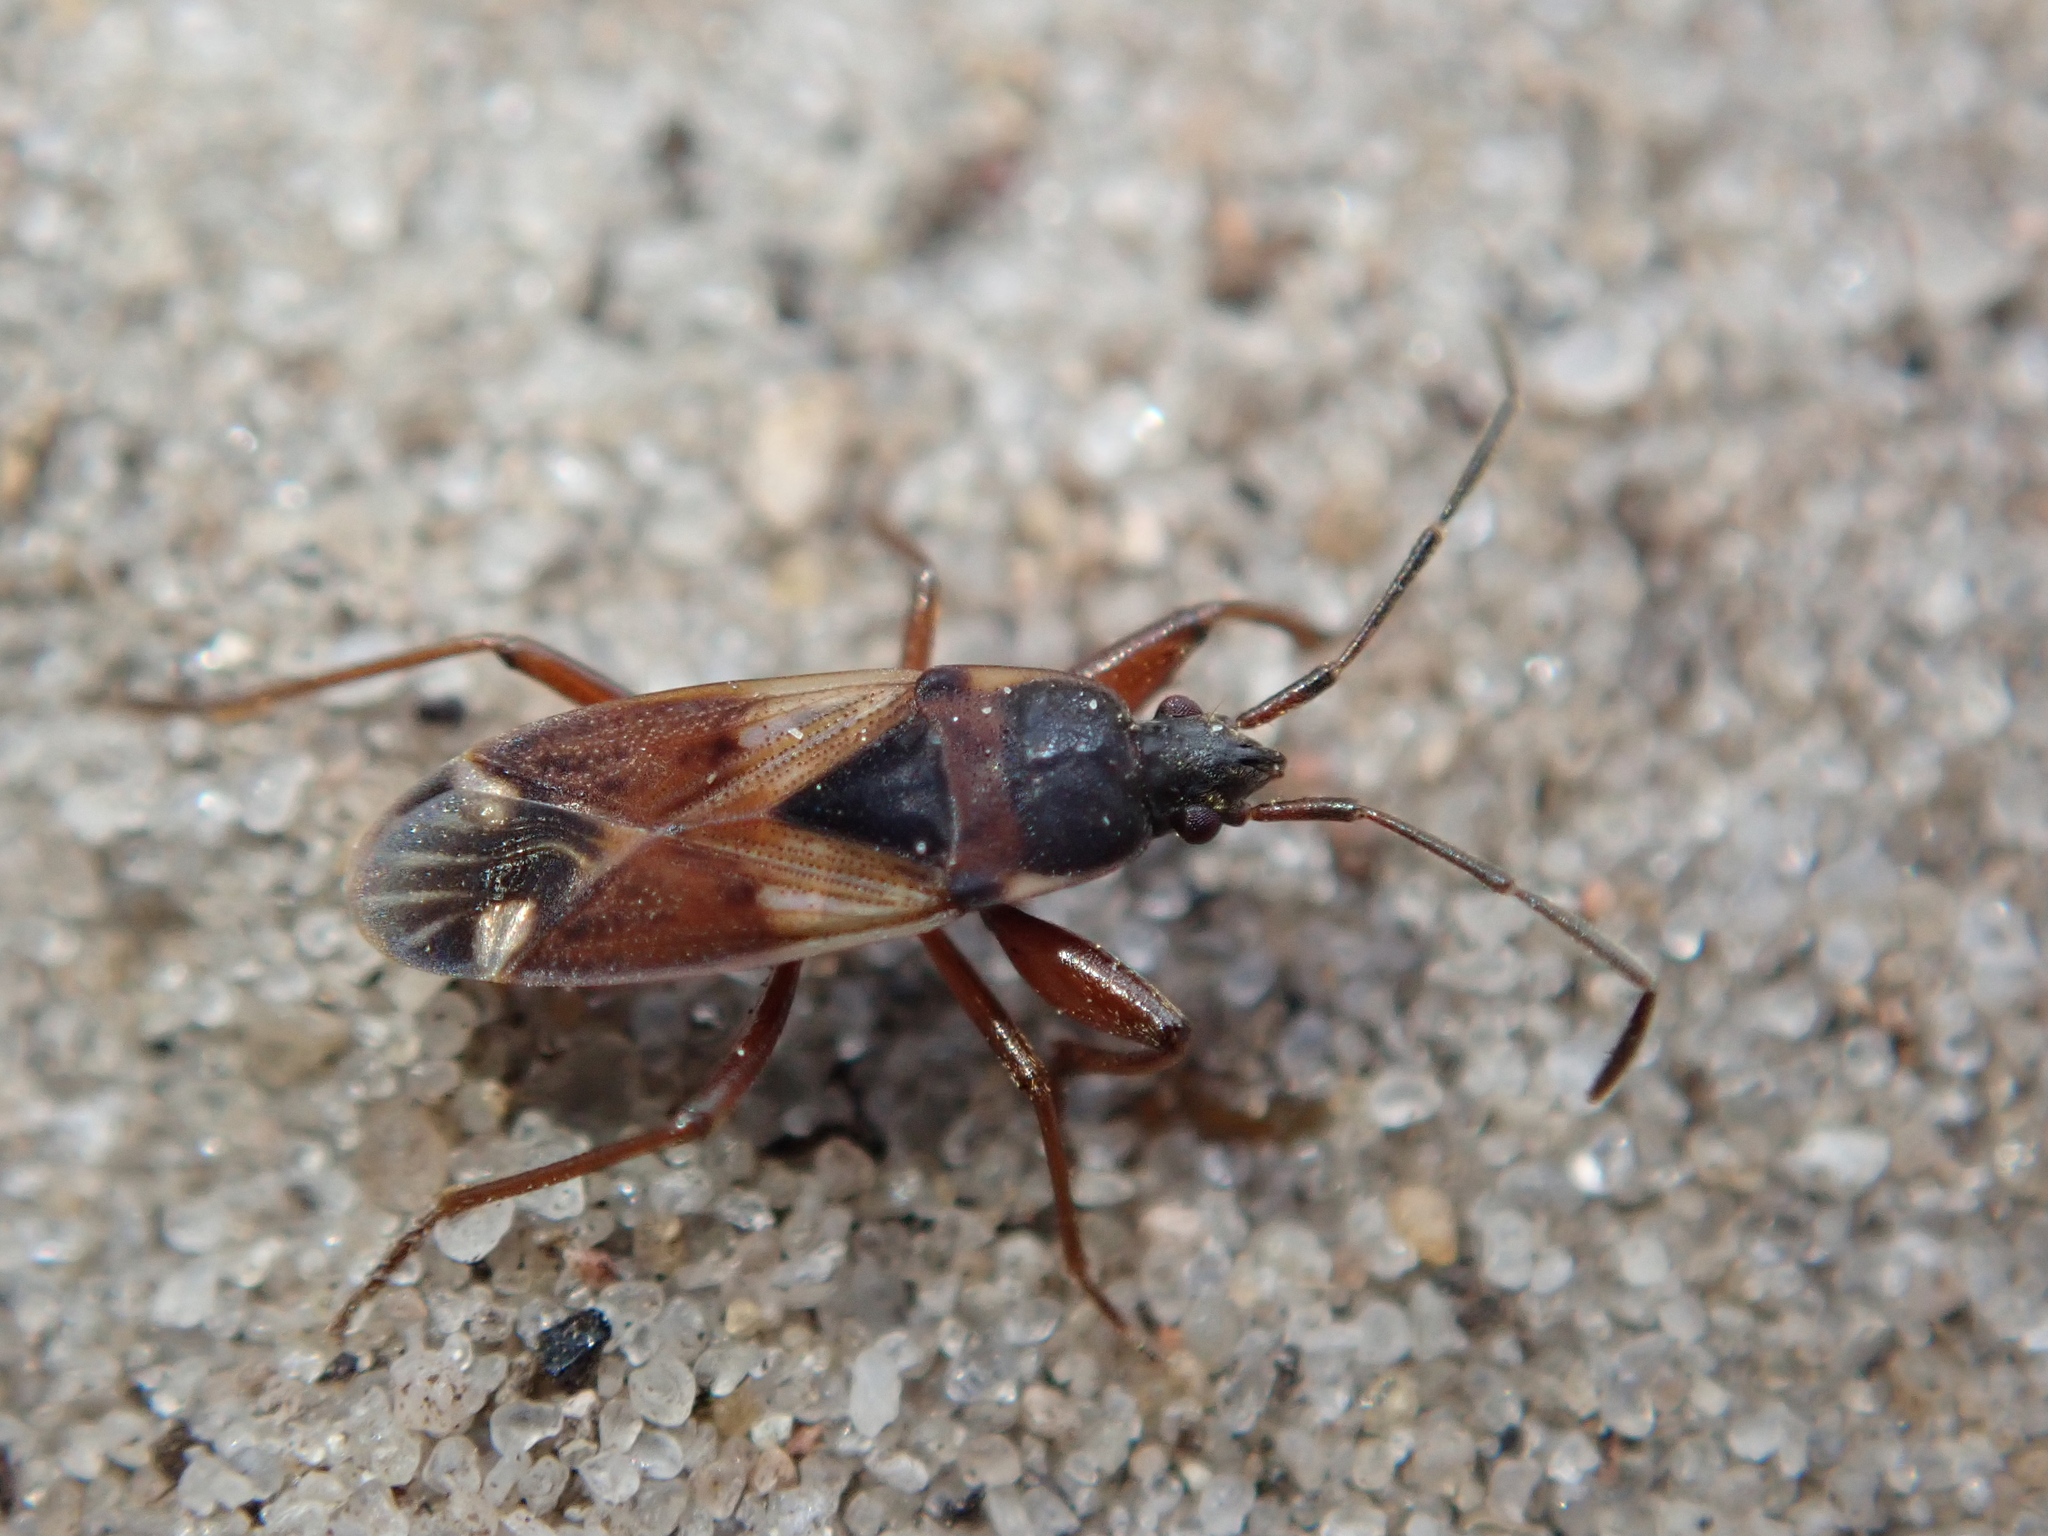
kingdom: Animalia
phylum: Arthropoda
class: Insecta
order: Hemiptera
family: Rhyparochromidae
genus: Eremocoris
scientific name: Eremocoris abietis
